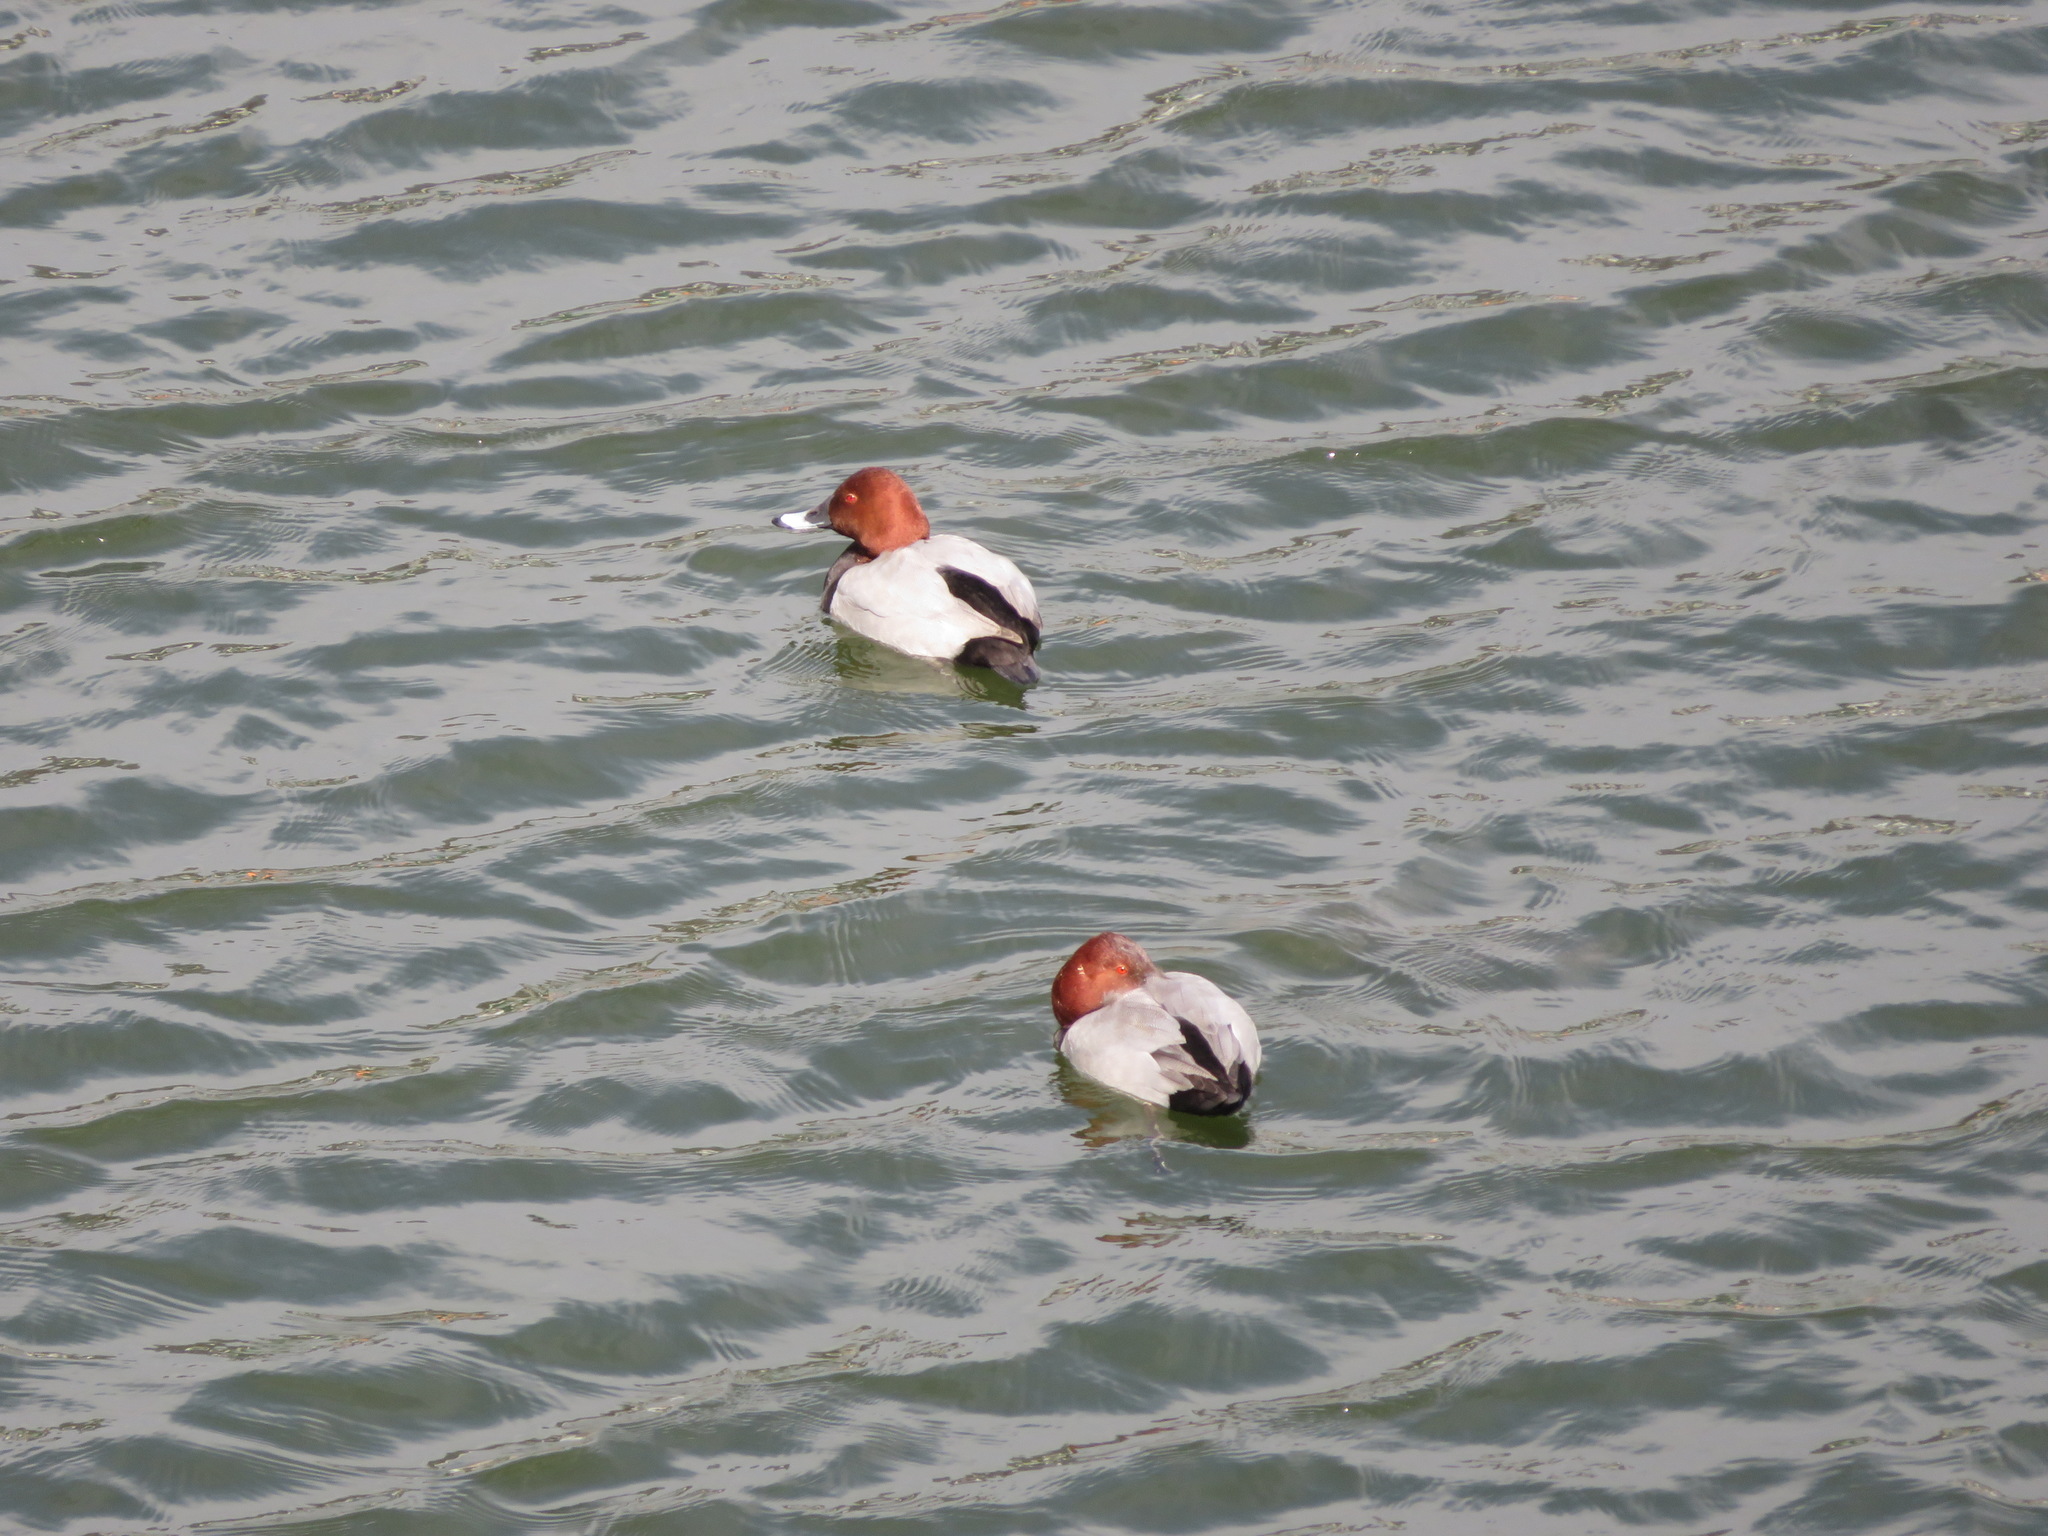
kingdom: Animalia
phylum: Chordata
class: Aves
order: Anseriformes
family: Anatidae
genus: Aythya
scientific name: Aythya ferina
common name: Common pochard
